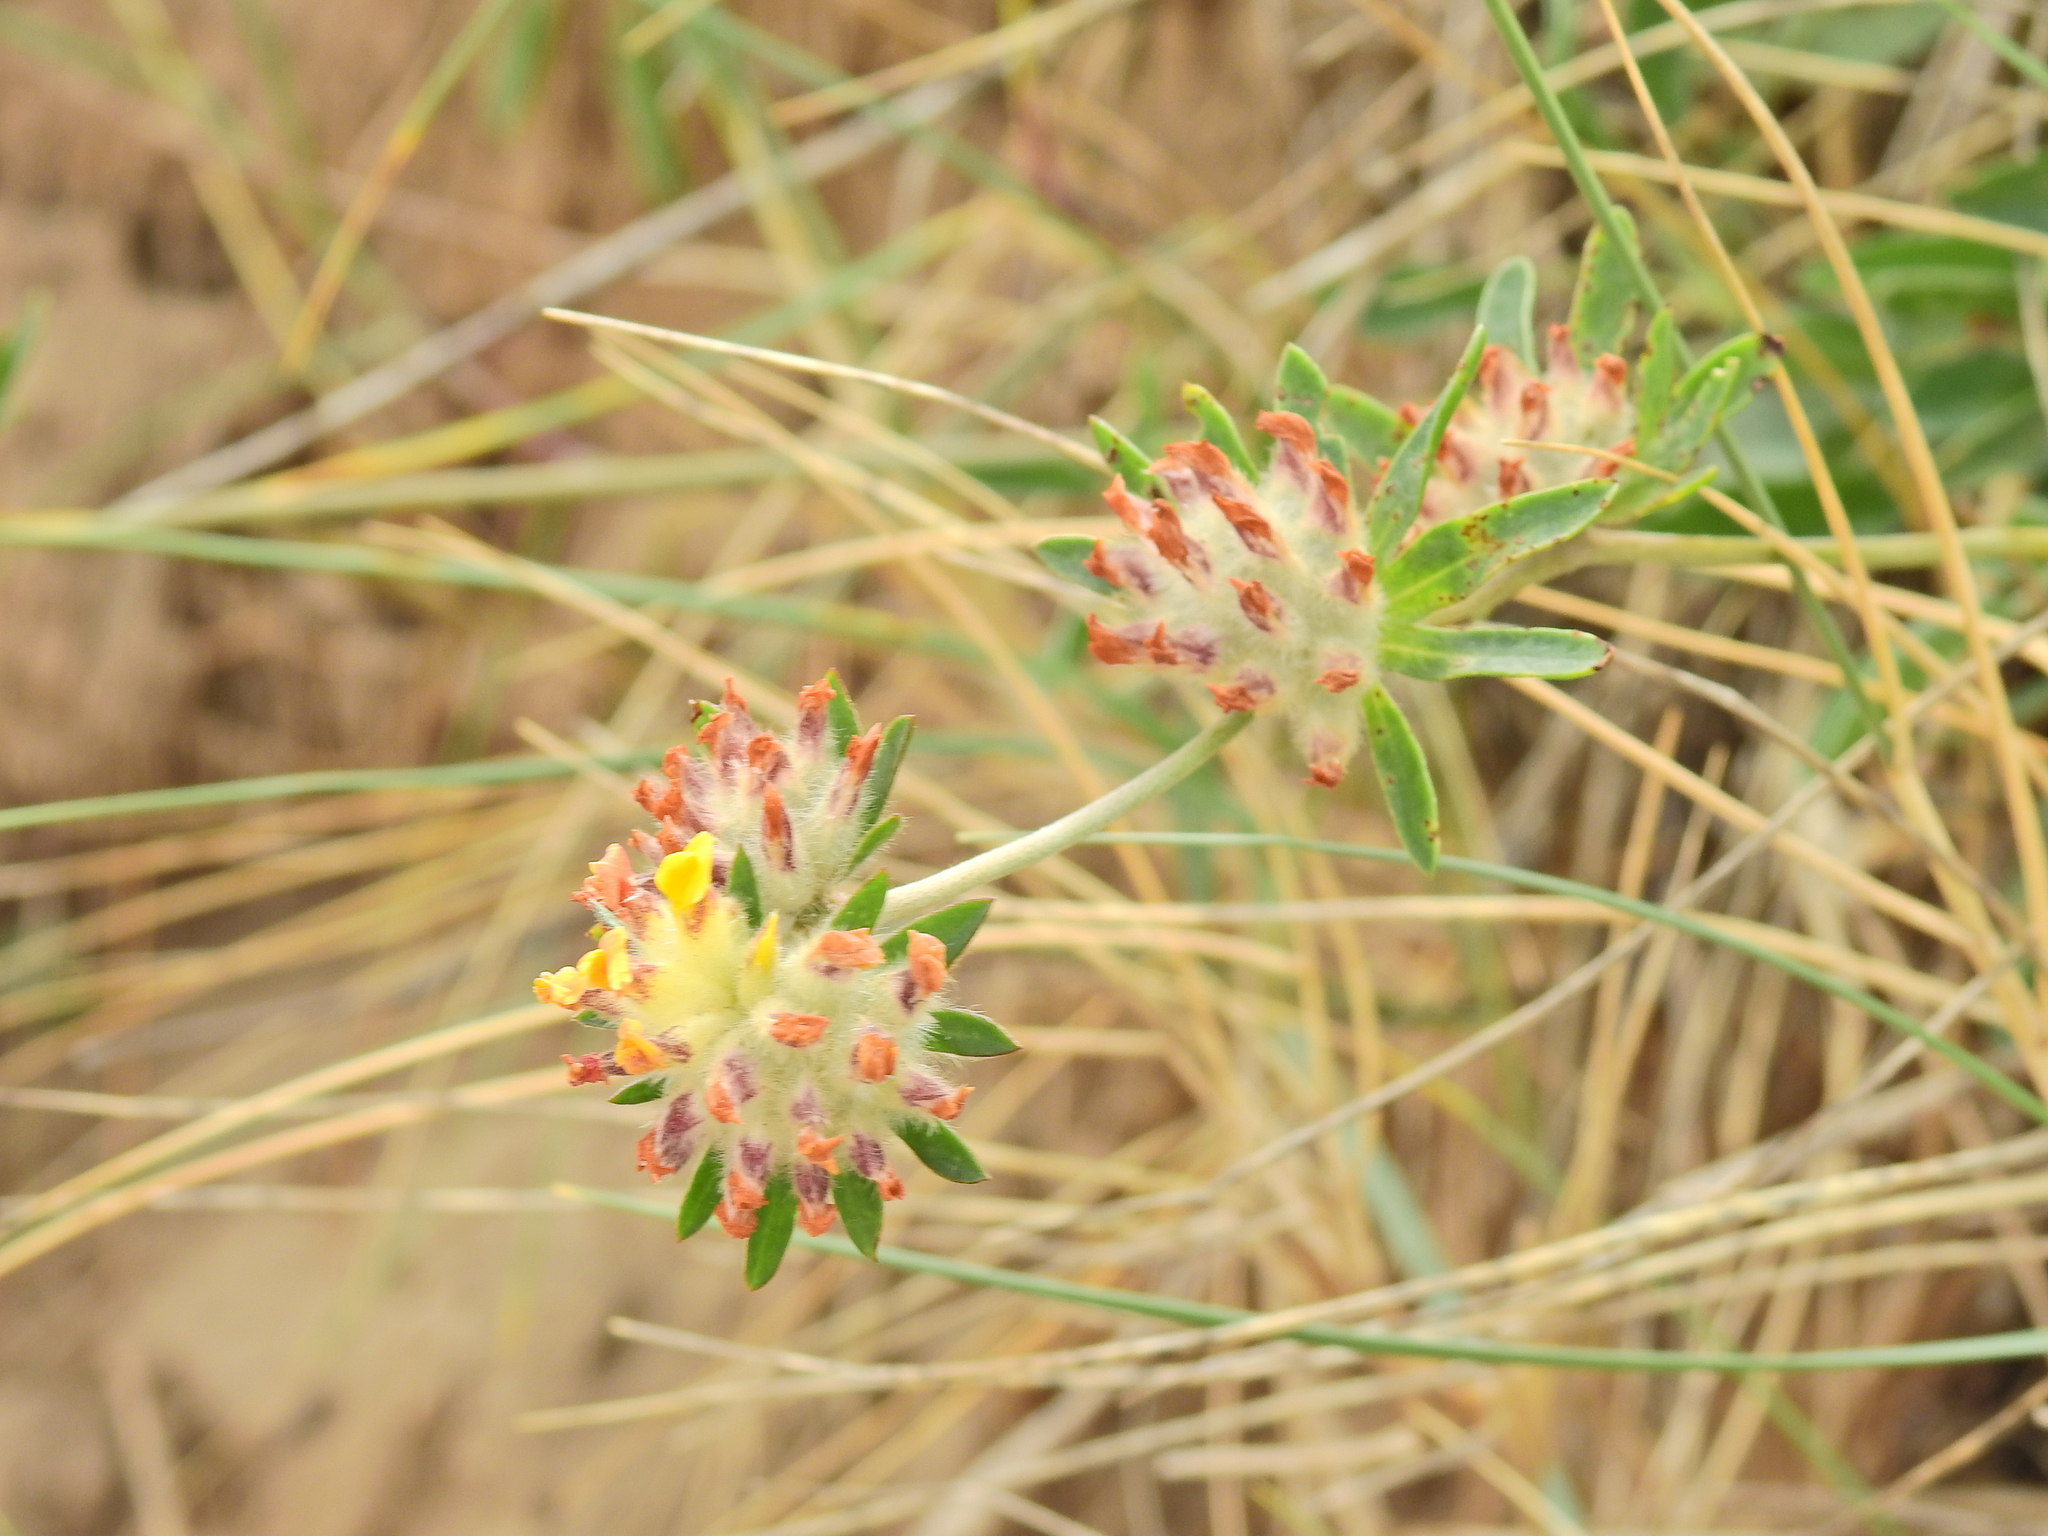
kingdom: Plantae
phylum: Tracheophyta
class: Magnoliopsida
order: Fabales
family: Fabaceae
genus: Anthyllis
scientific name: Anthyllis vulneraria
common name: Kidney vetch
